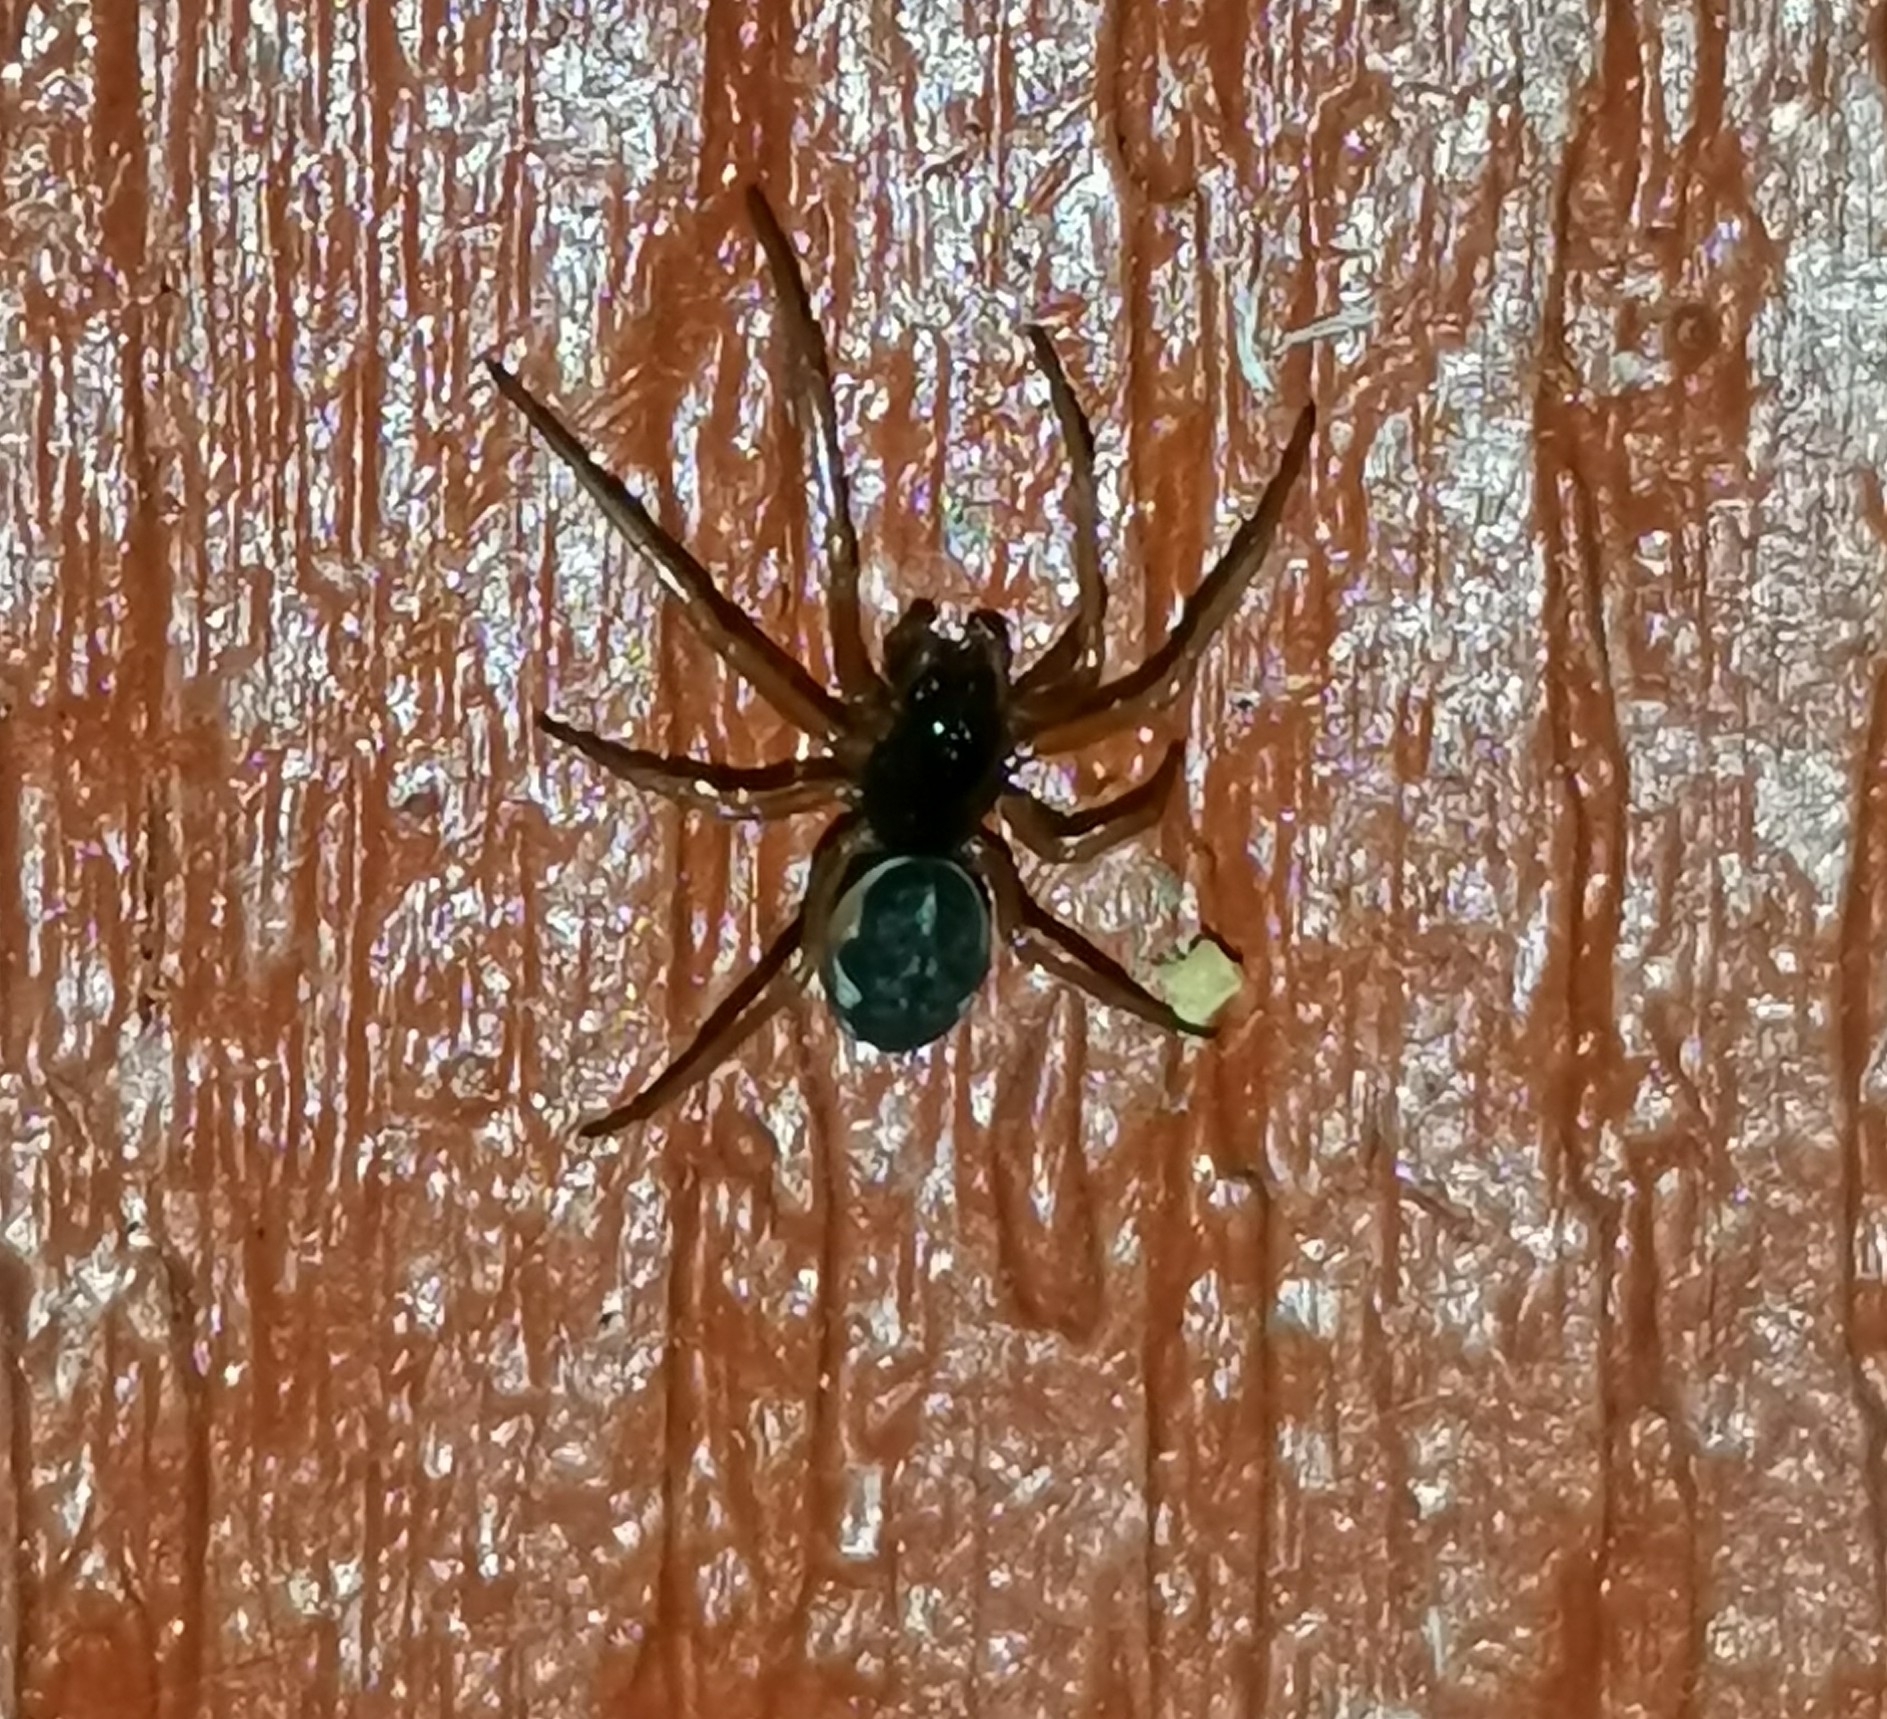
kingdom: Animalia
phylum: Arthropoda
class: Arachnida
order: Araneae
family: Tetragnathidae
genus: Pachygnatha
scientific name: Pachygnatha degeeri
